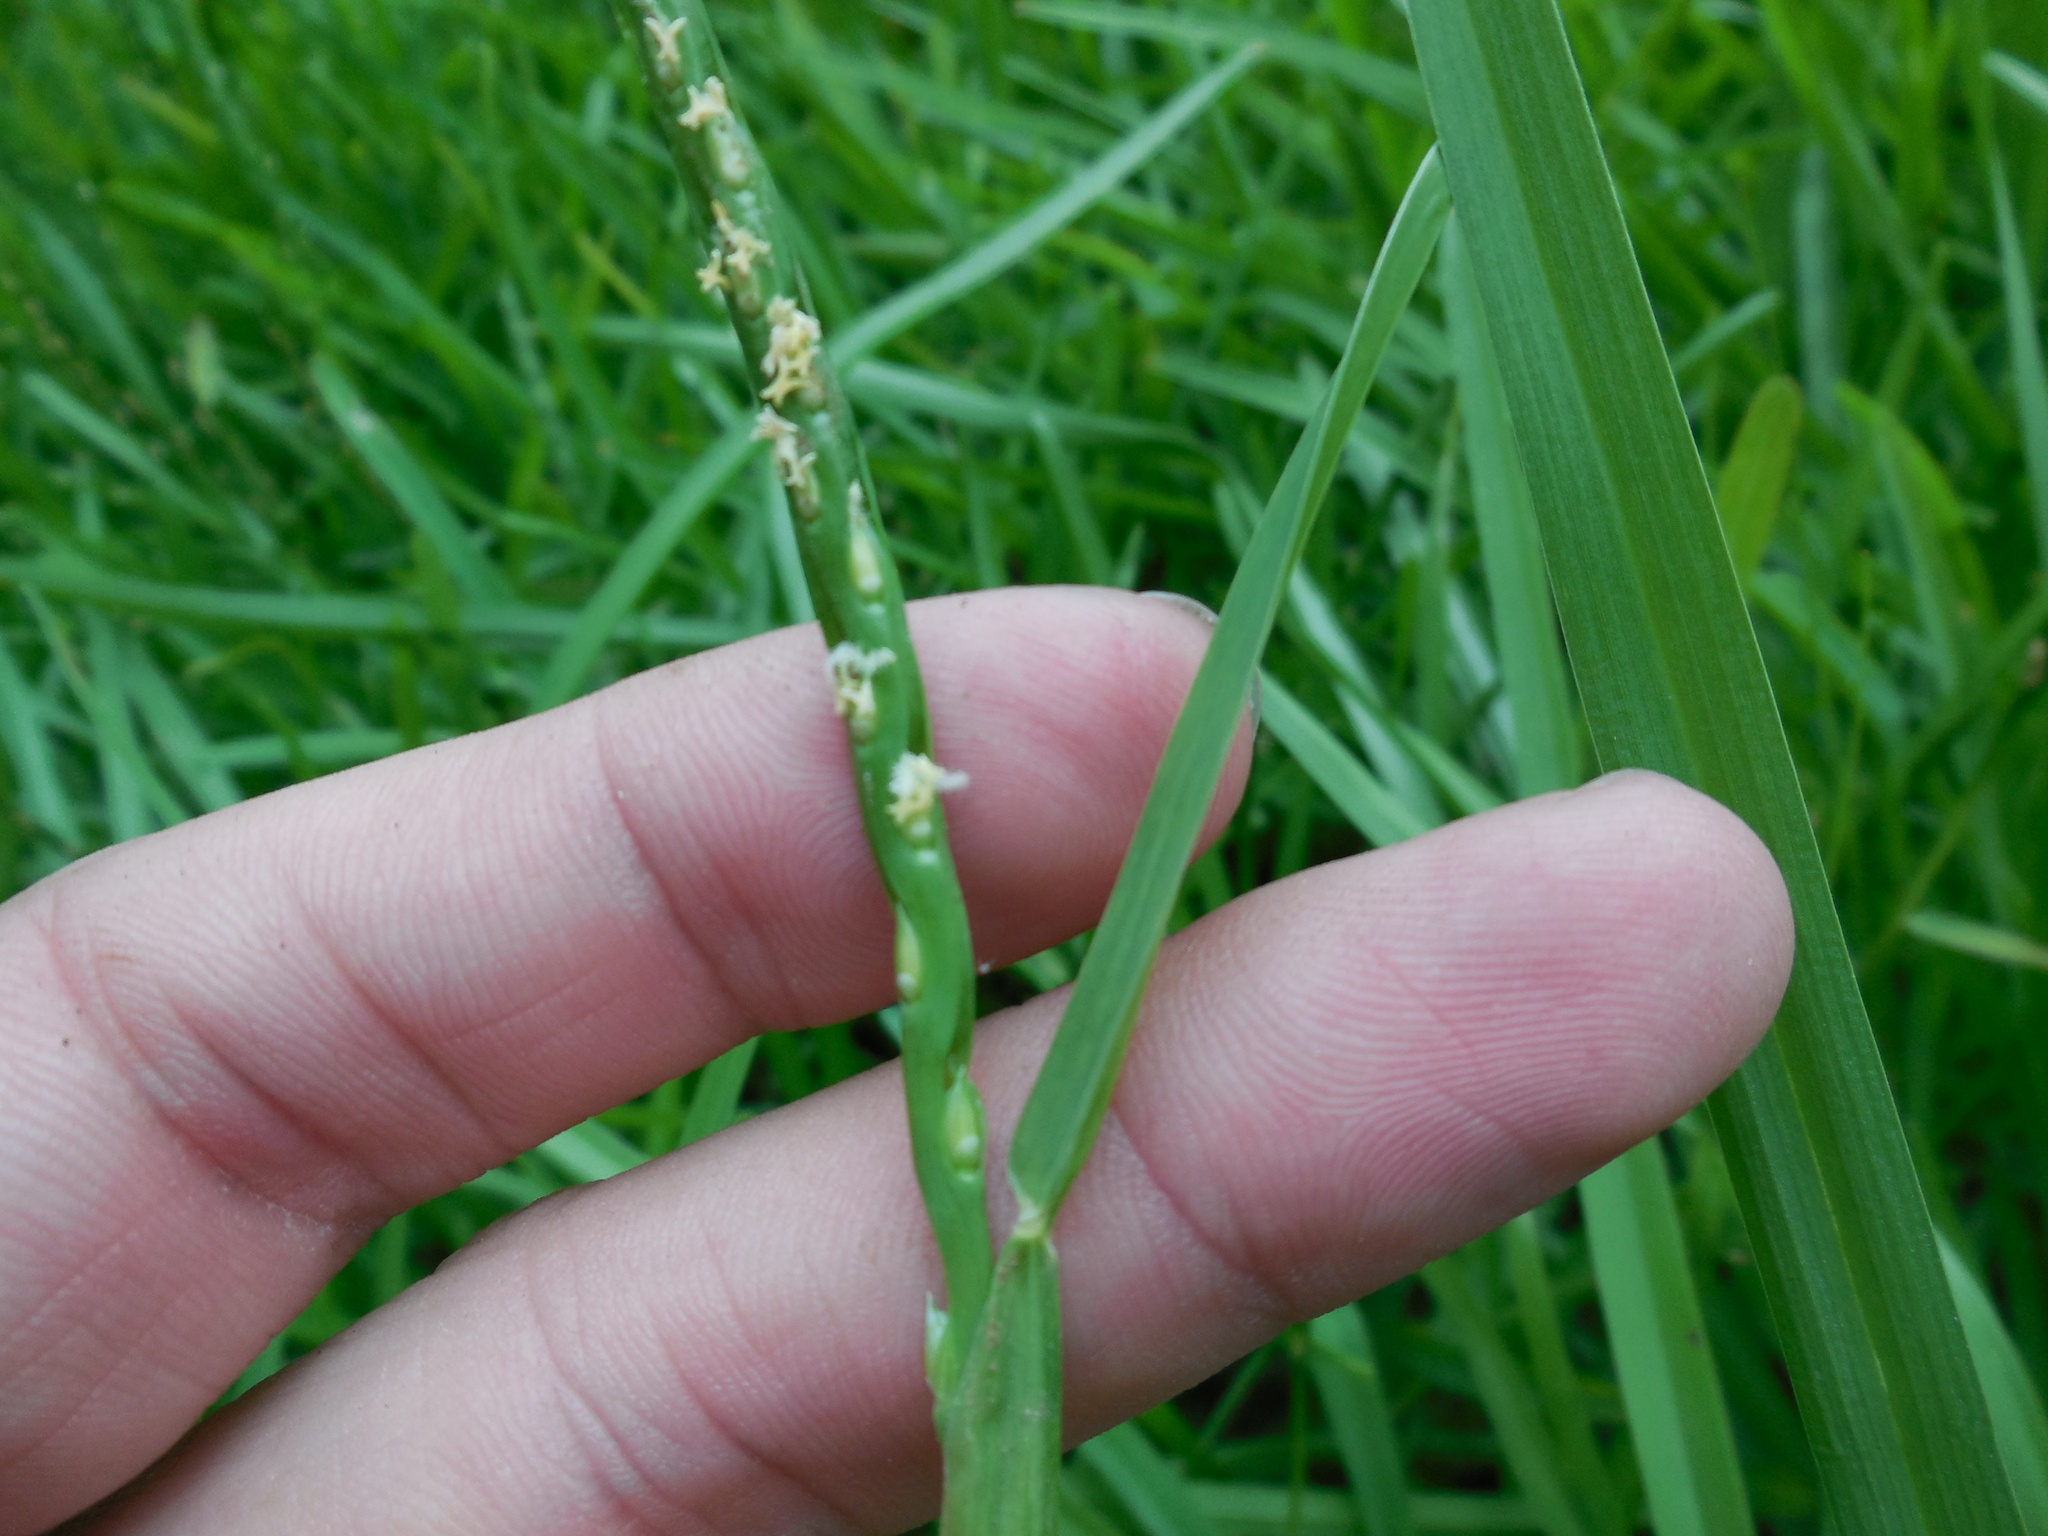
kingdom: Plantae
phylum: Tracheophyta
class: Liliopsida
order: Poales
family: Poaceae
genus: Stenotaphrum
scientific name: Stenotaphrum secundatum
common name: St. augustine grass
